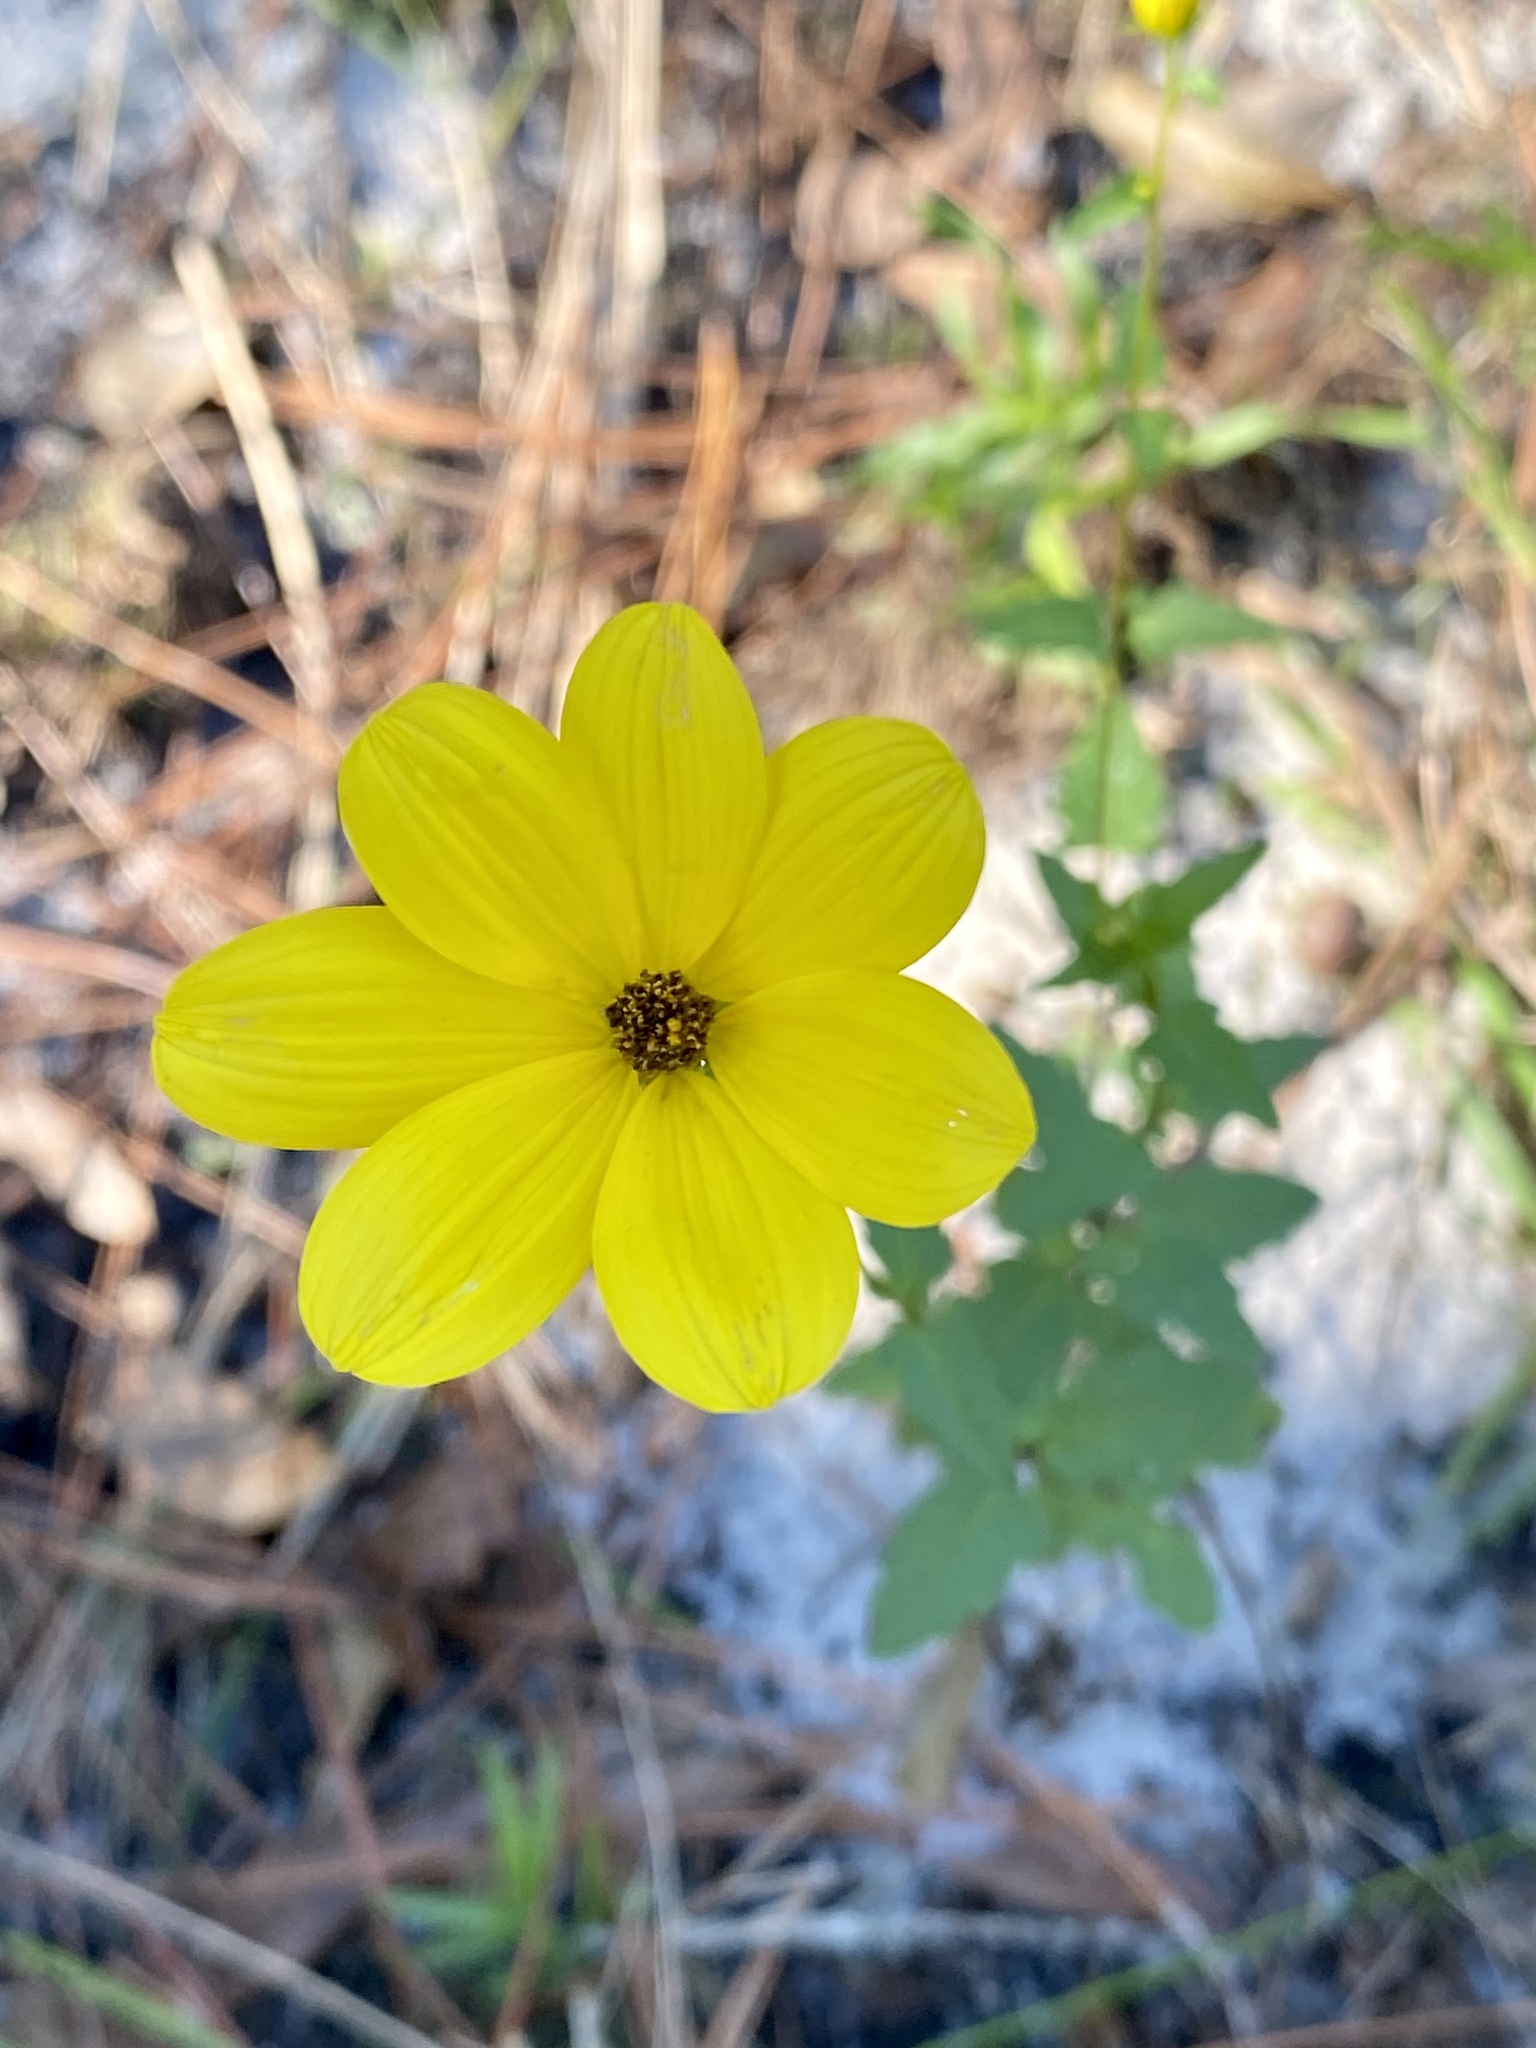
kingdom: Plantae
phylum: Tracheophyta
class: Magnoliopsida
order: Asterales
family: Asteraceae
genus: Bidens
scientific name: Bidens mitis
